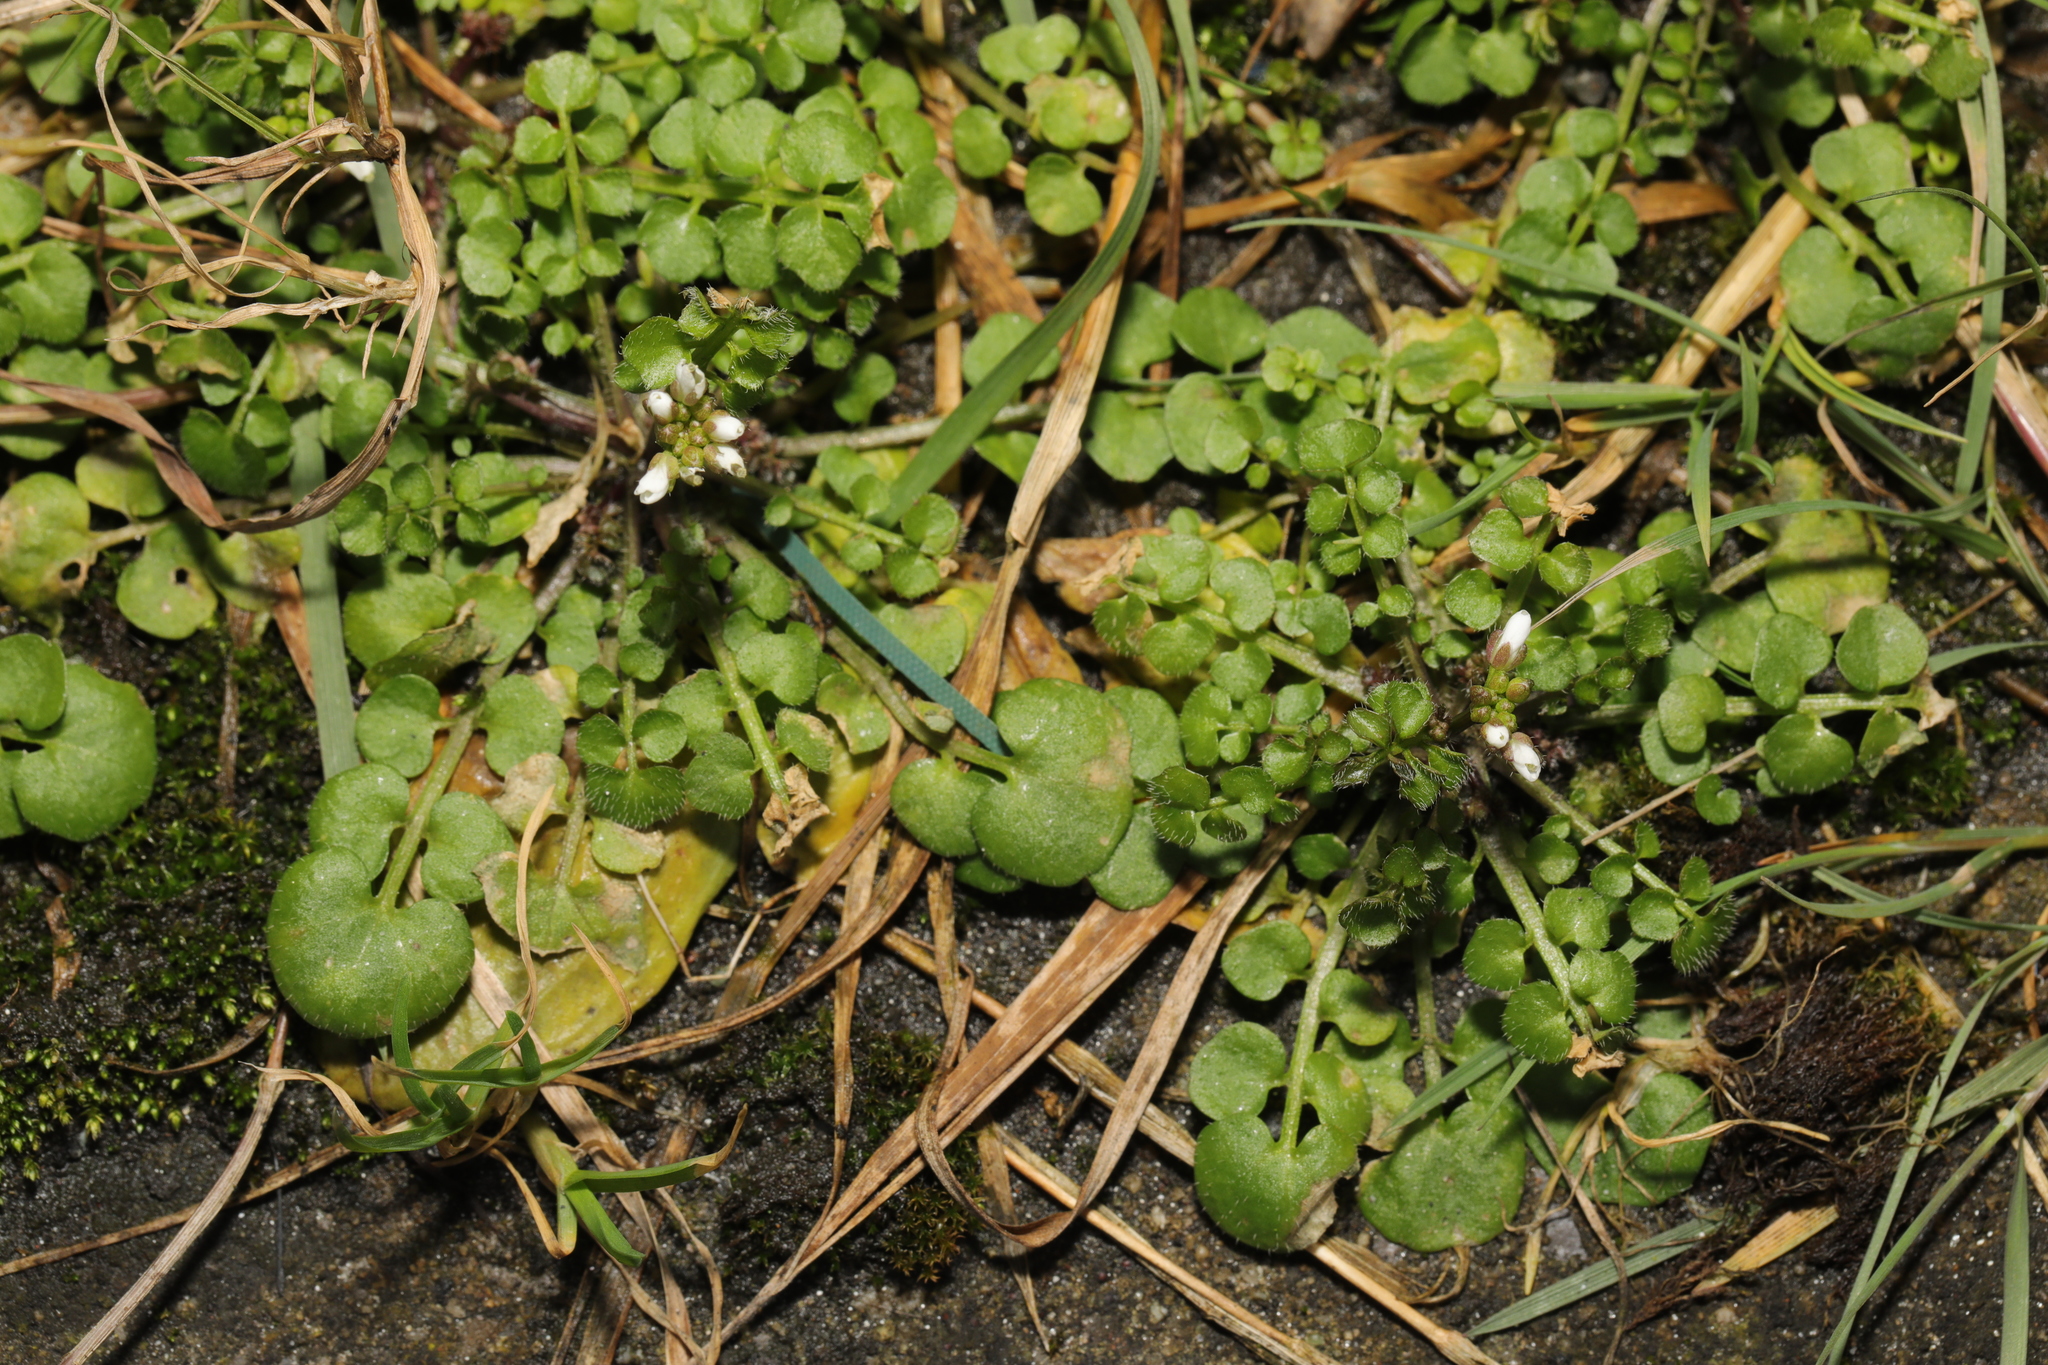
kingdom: Plantae
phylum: Tracheophyta
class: Magnoliopsida
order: Brassicales
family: Brassicaceae
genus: Cardamine
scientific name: Cardamine hirsuta
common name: Hairy bittercress
